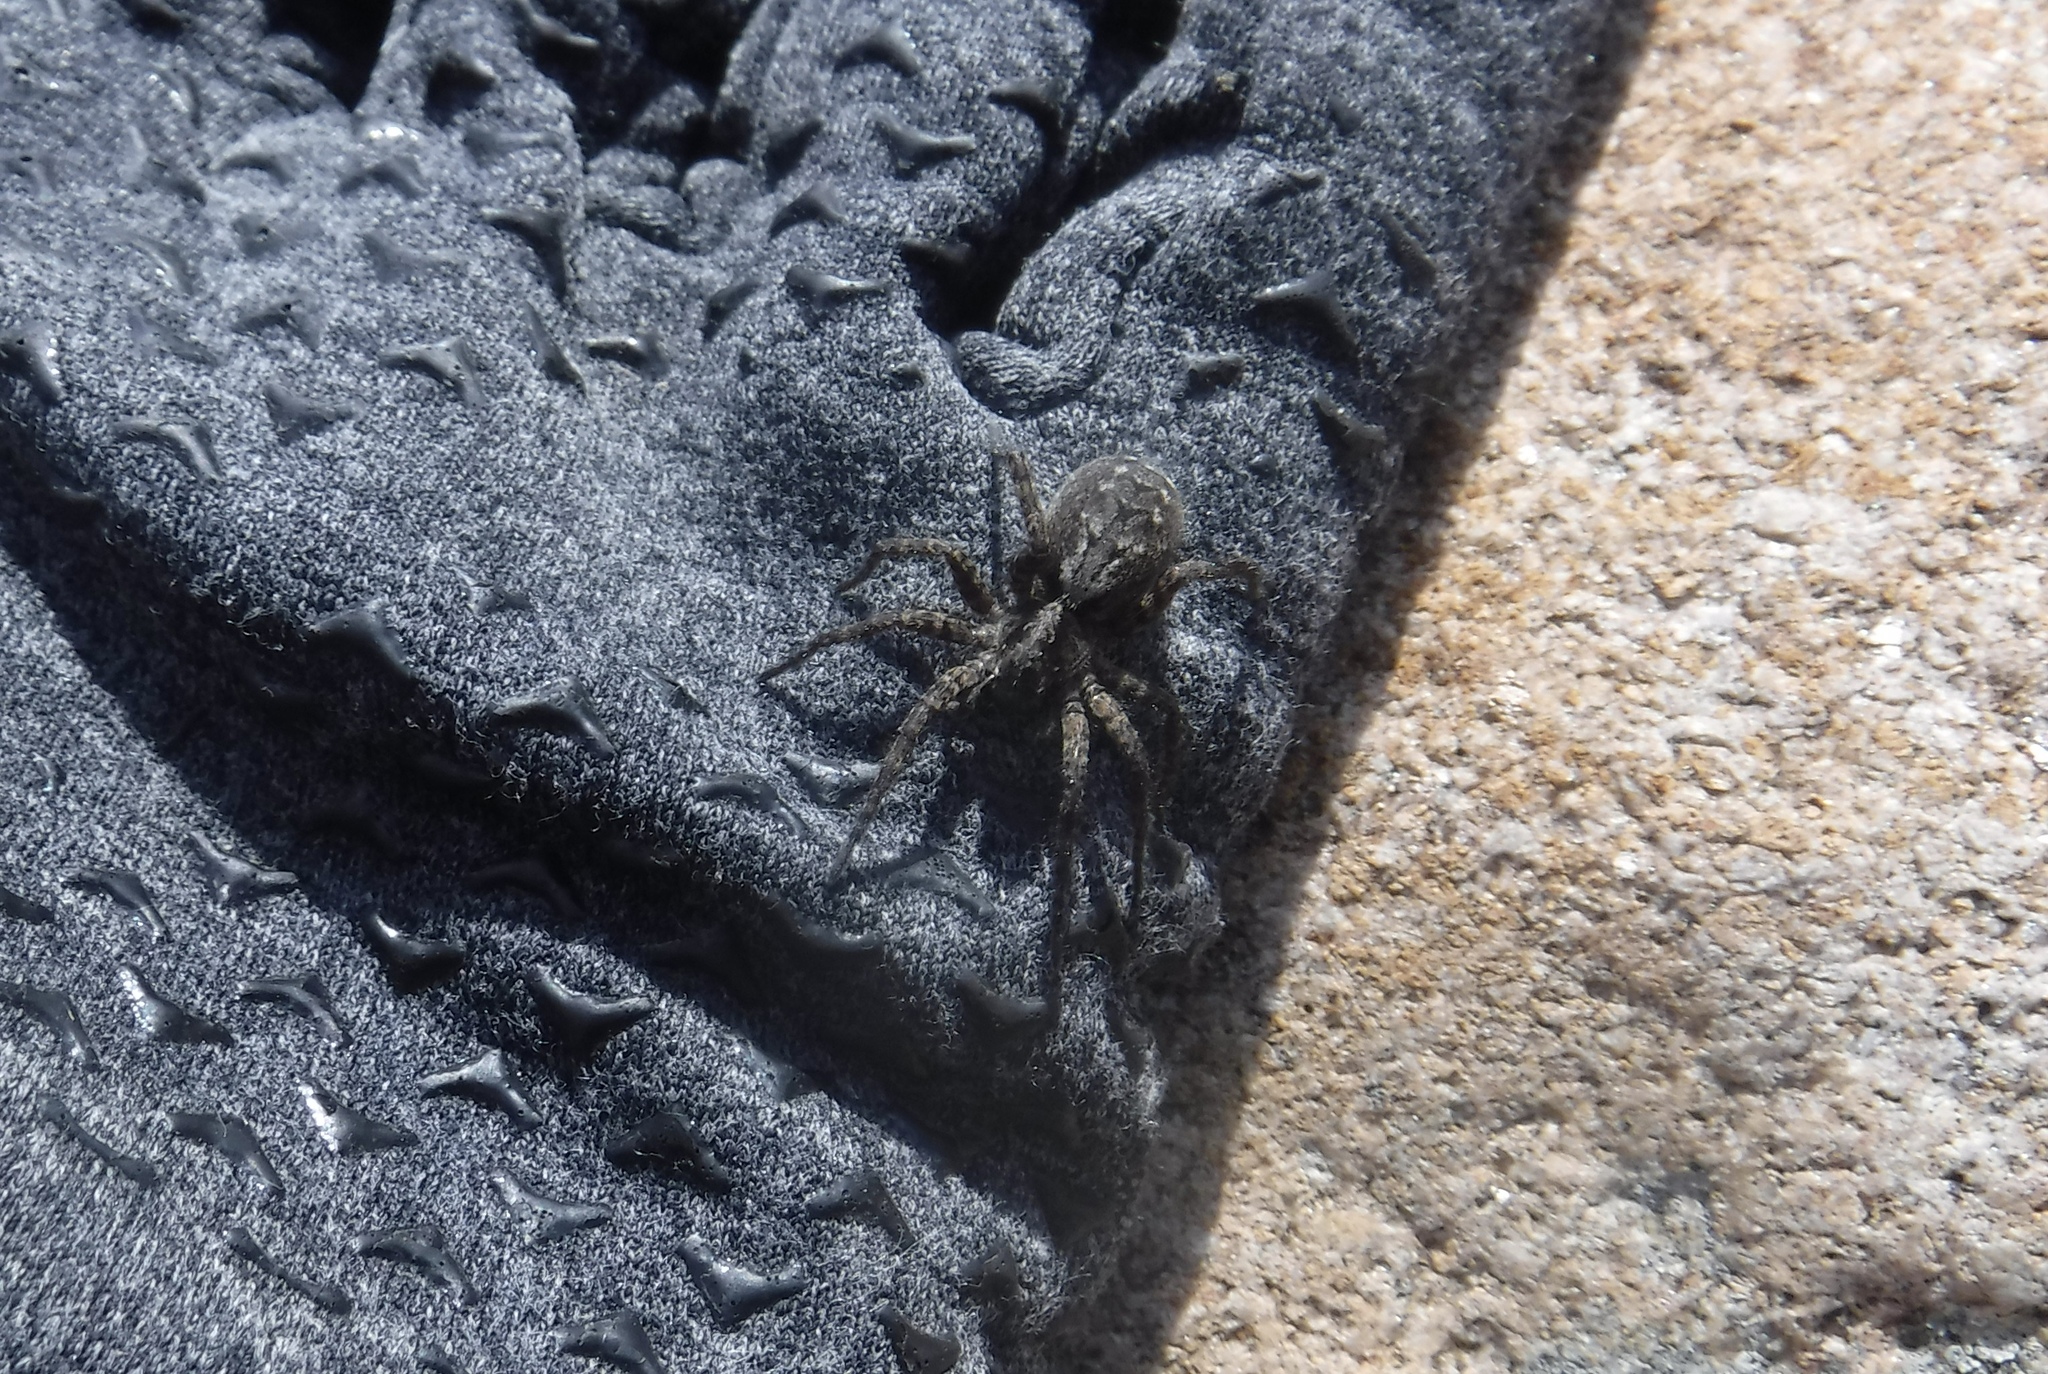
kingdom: Animalia
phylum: Arthropoda
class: Arachnida
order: Araneae
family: Lycosidae
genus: Alopecosa
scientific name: Alopecosa hirtipes
